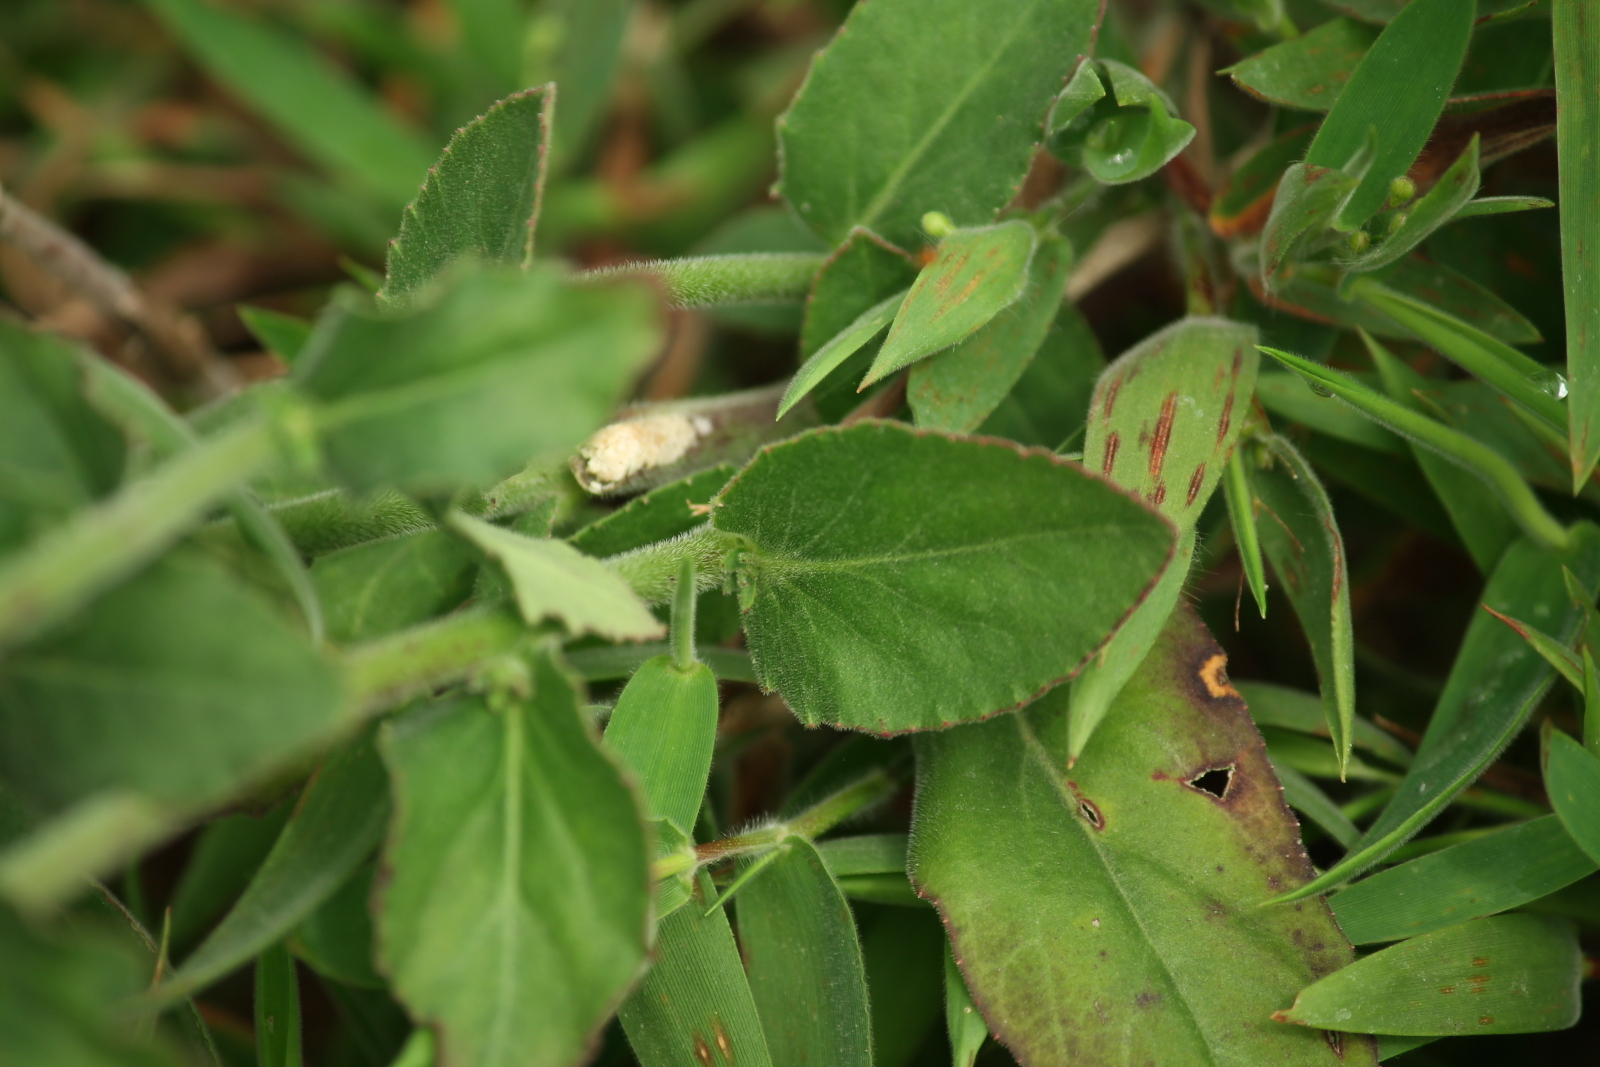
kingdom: Plantae
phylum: Tracheophyta
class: Magnoliopsida
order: Asterales
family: Campanulaceae
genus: Lobelia
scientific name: Lobelia puberula
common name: Purple dewdrop
